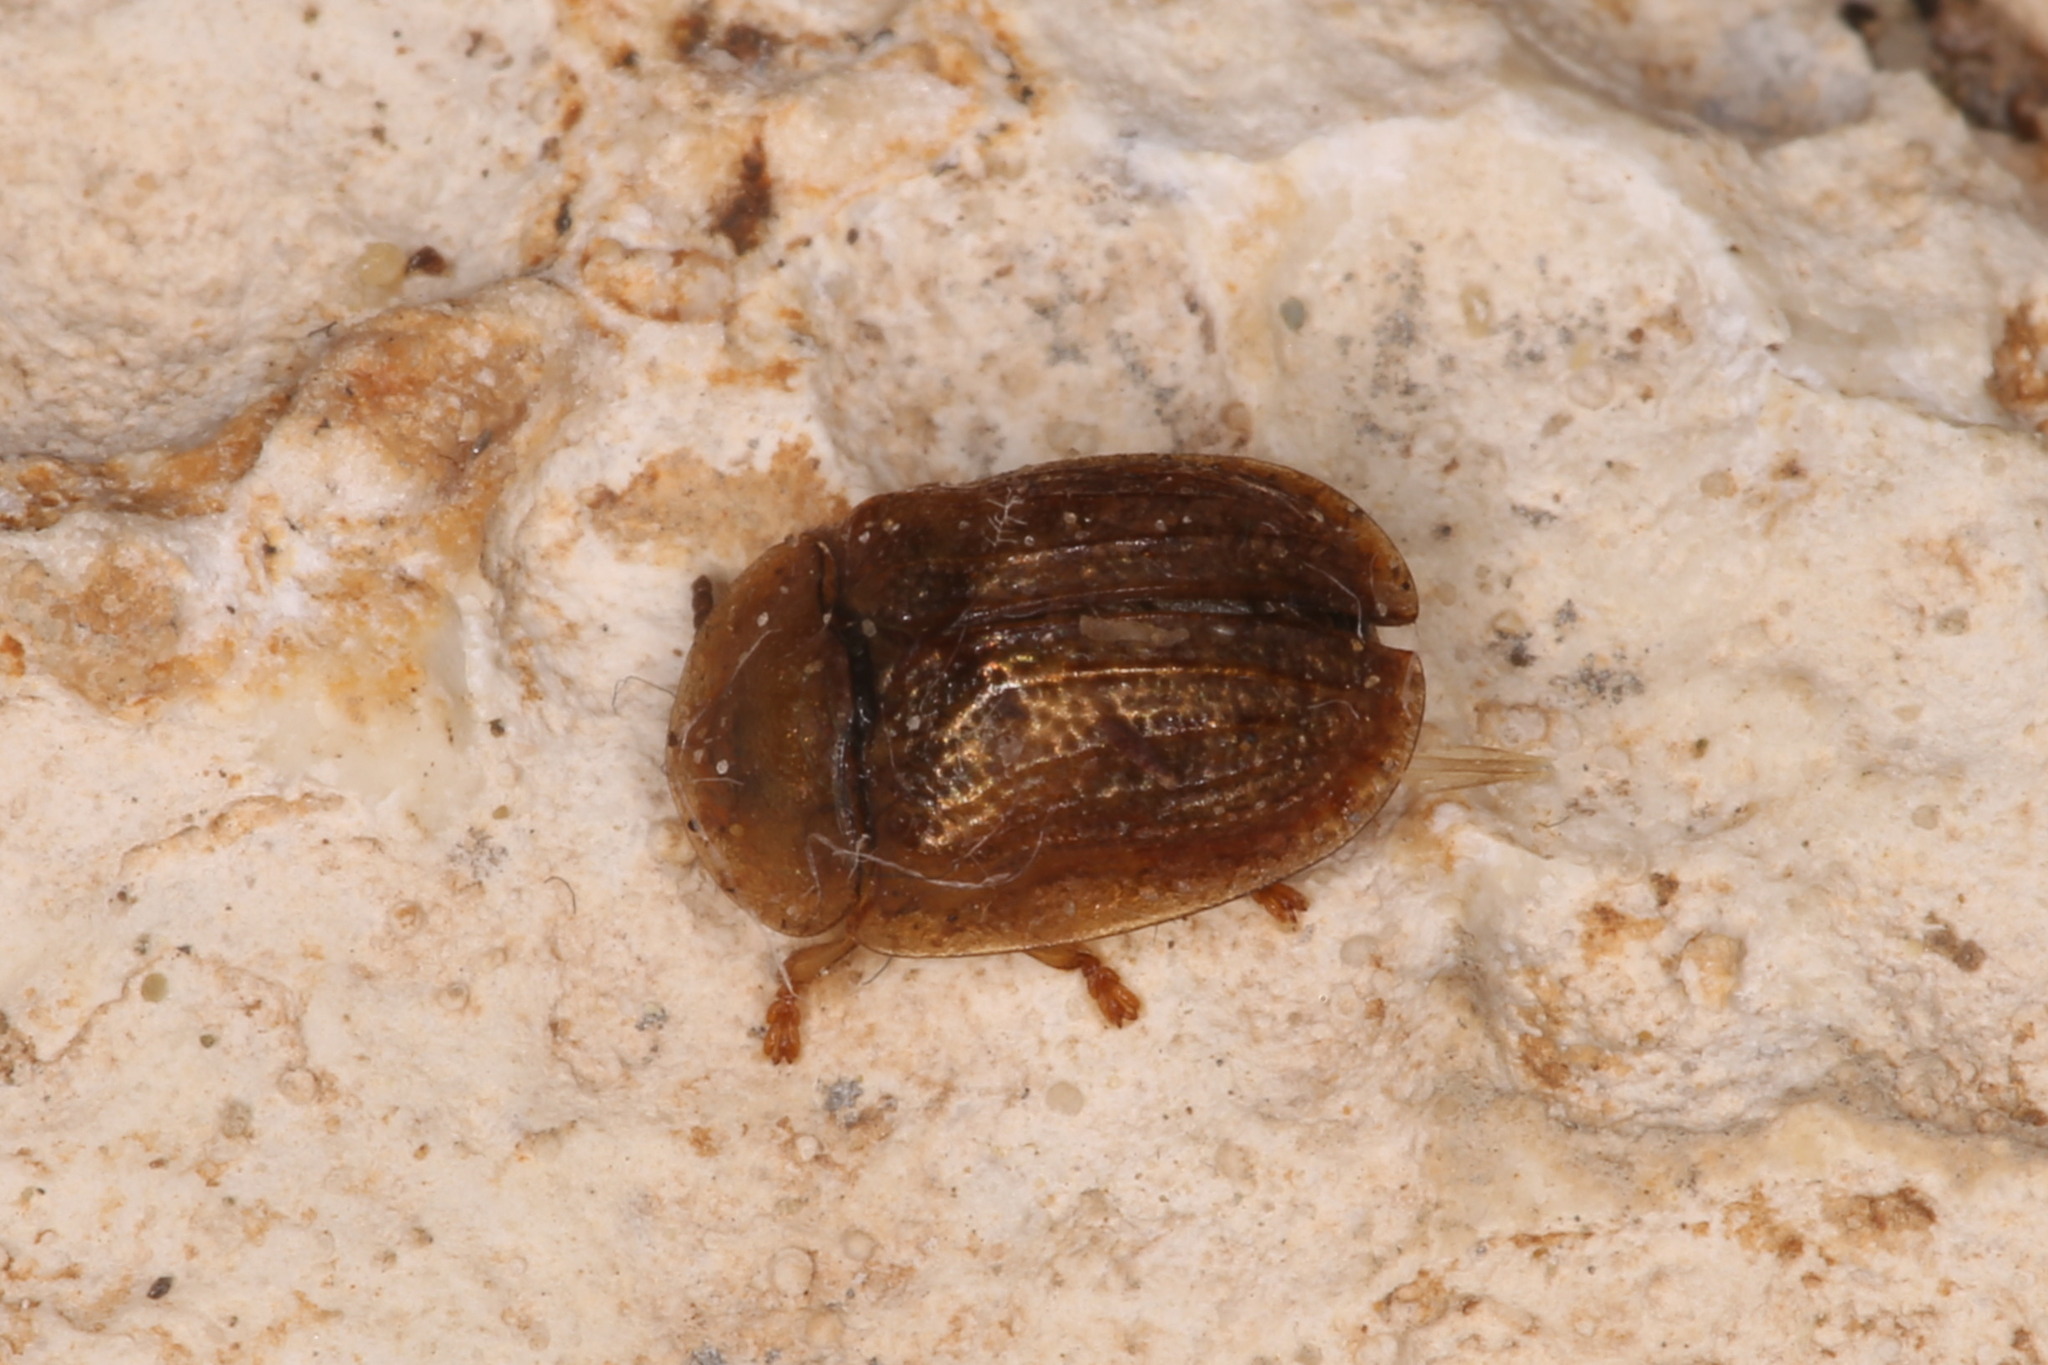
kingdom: Animalia
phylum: Arthropoda
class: Insecta
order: Coleoptera
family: Chrysomelidae
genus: Hypocassida
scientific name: Hypocassida subferruginea
